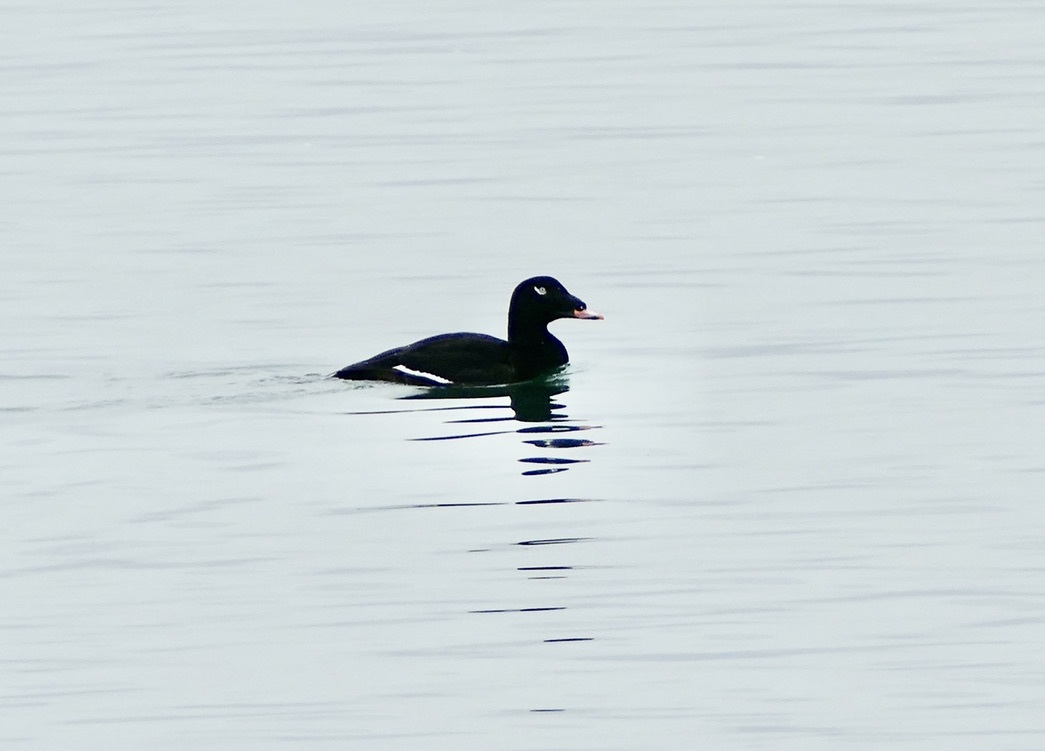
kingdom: Animalia
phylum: Chordata
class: Aves
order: Anseriformes
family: Anatidae
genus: Melanitta
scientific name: Melanitta deglandi
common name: White-winged scoter
